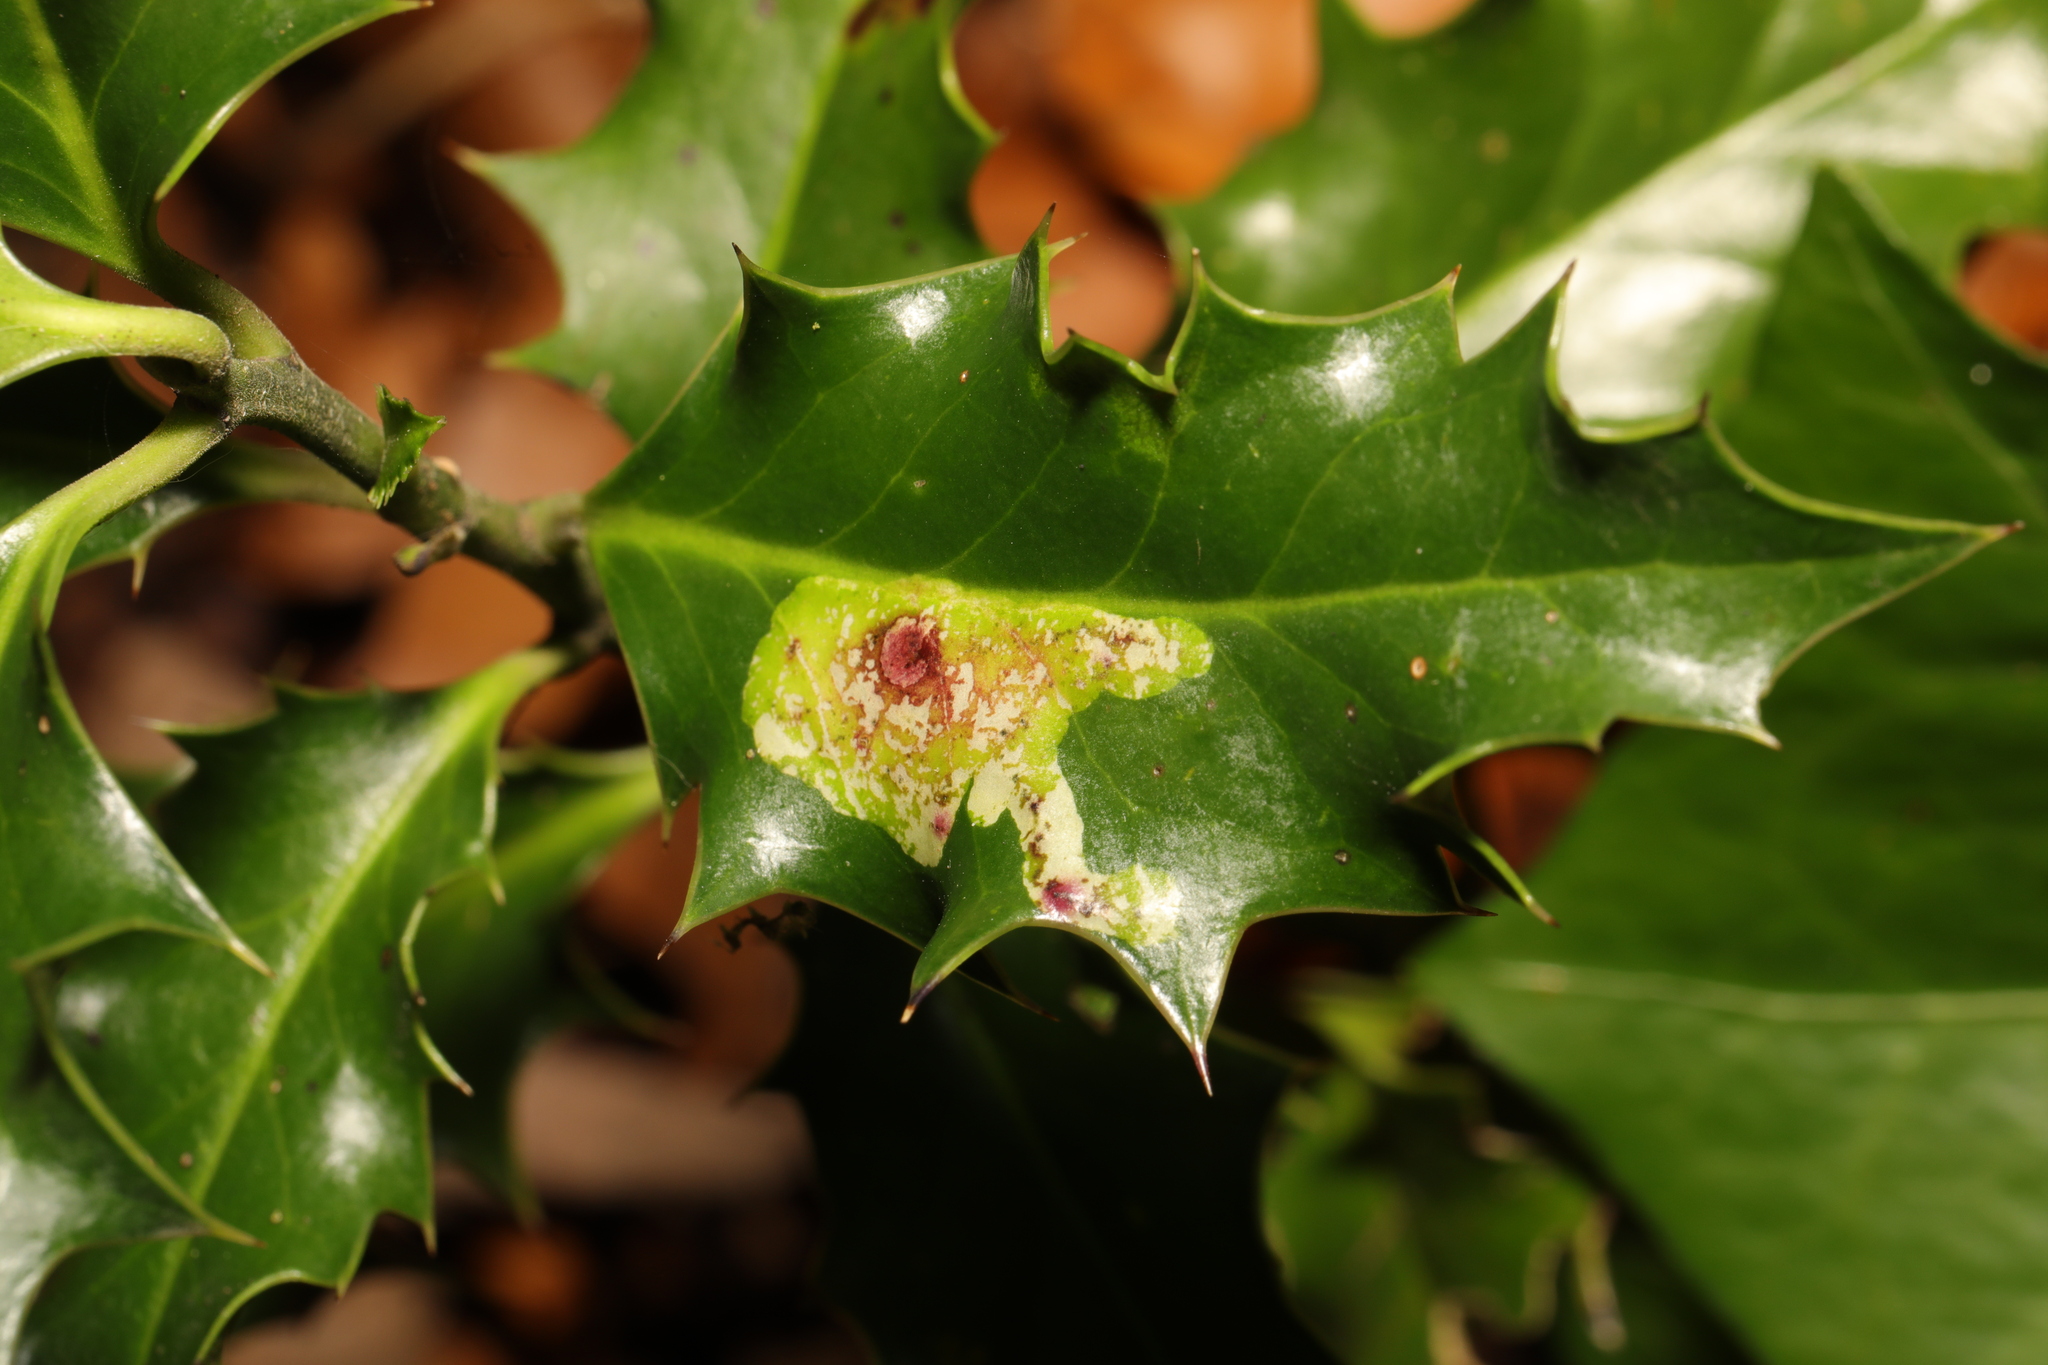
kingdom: Animalia
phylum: Arthropoda
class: Insecta
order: Diptera
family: Agromyzidae
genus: Phytomyza
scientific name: Phytomyza ilicis
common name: Holly leafminer
